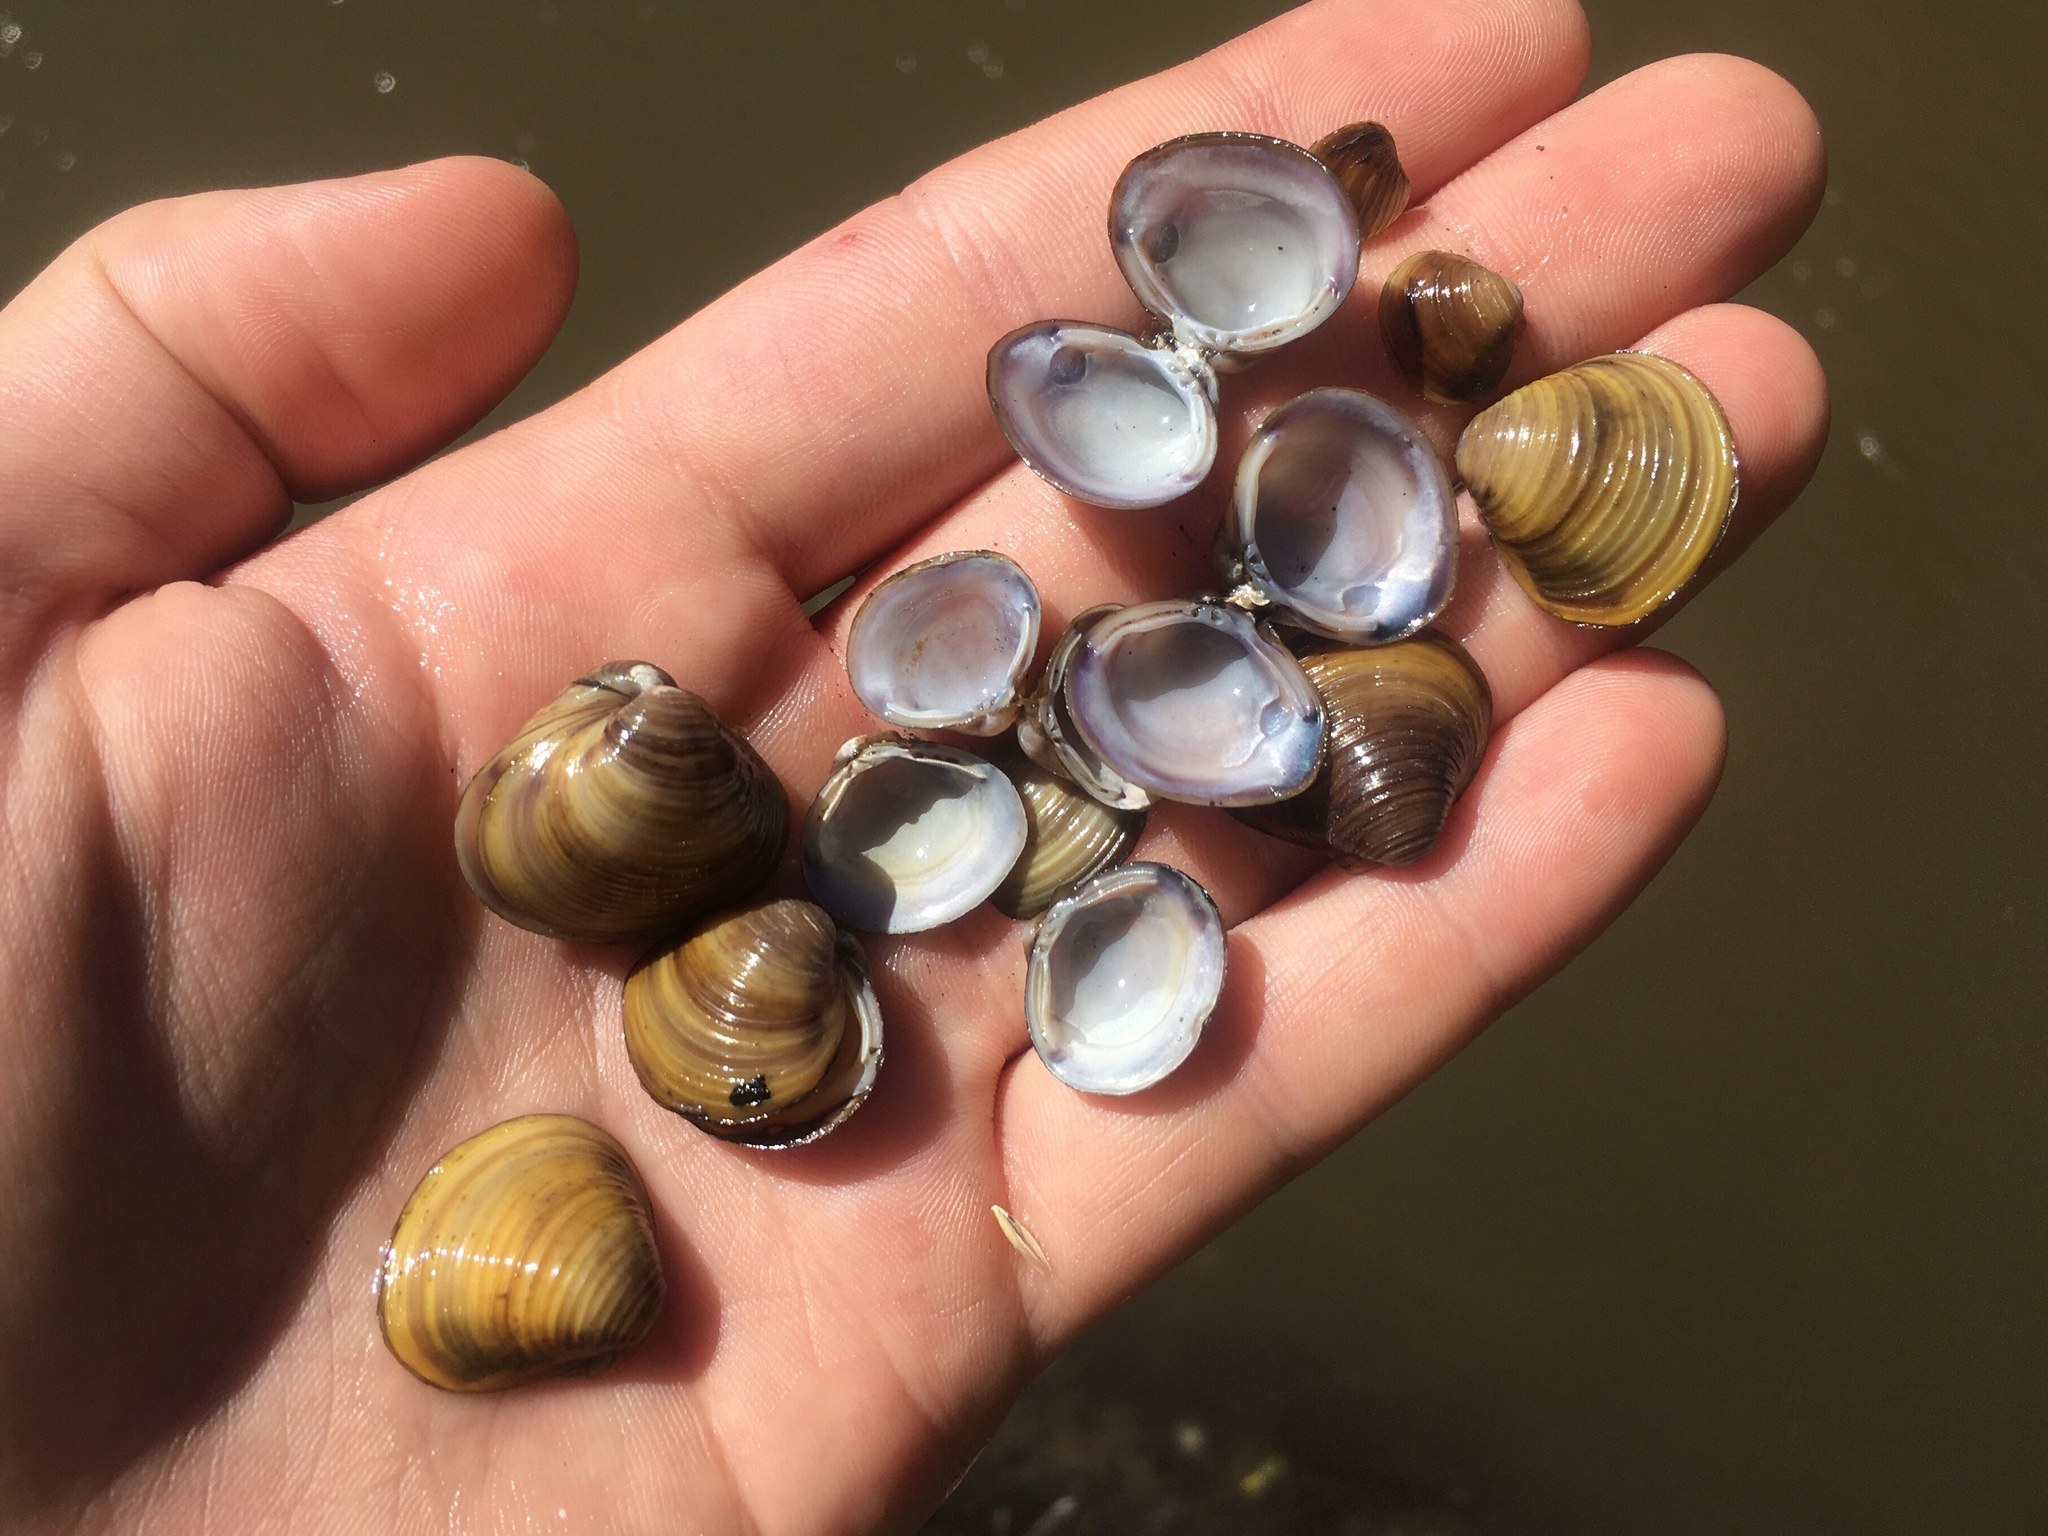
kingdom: Animalia
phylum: Mollusca
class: Bivalvia
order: Venerida
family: Cyrenidae
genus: Corbicula
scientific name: Corbicula fluminea
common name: Asian clam
